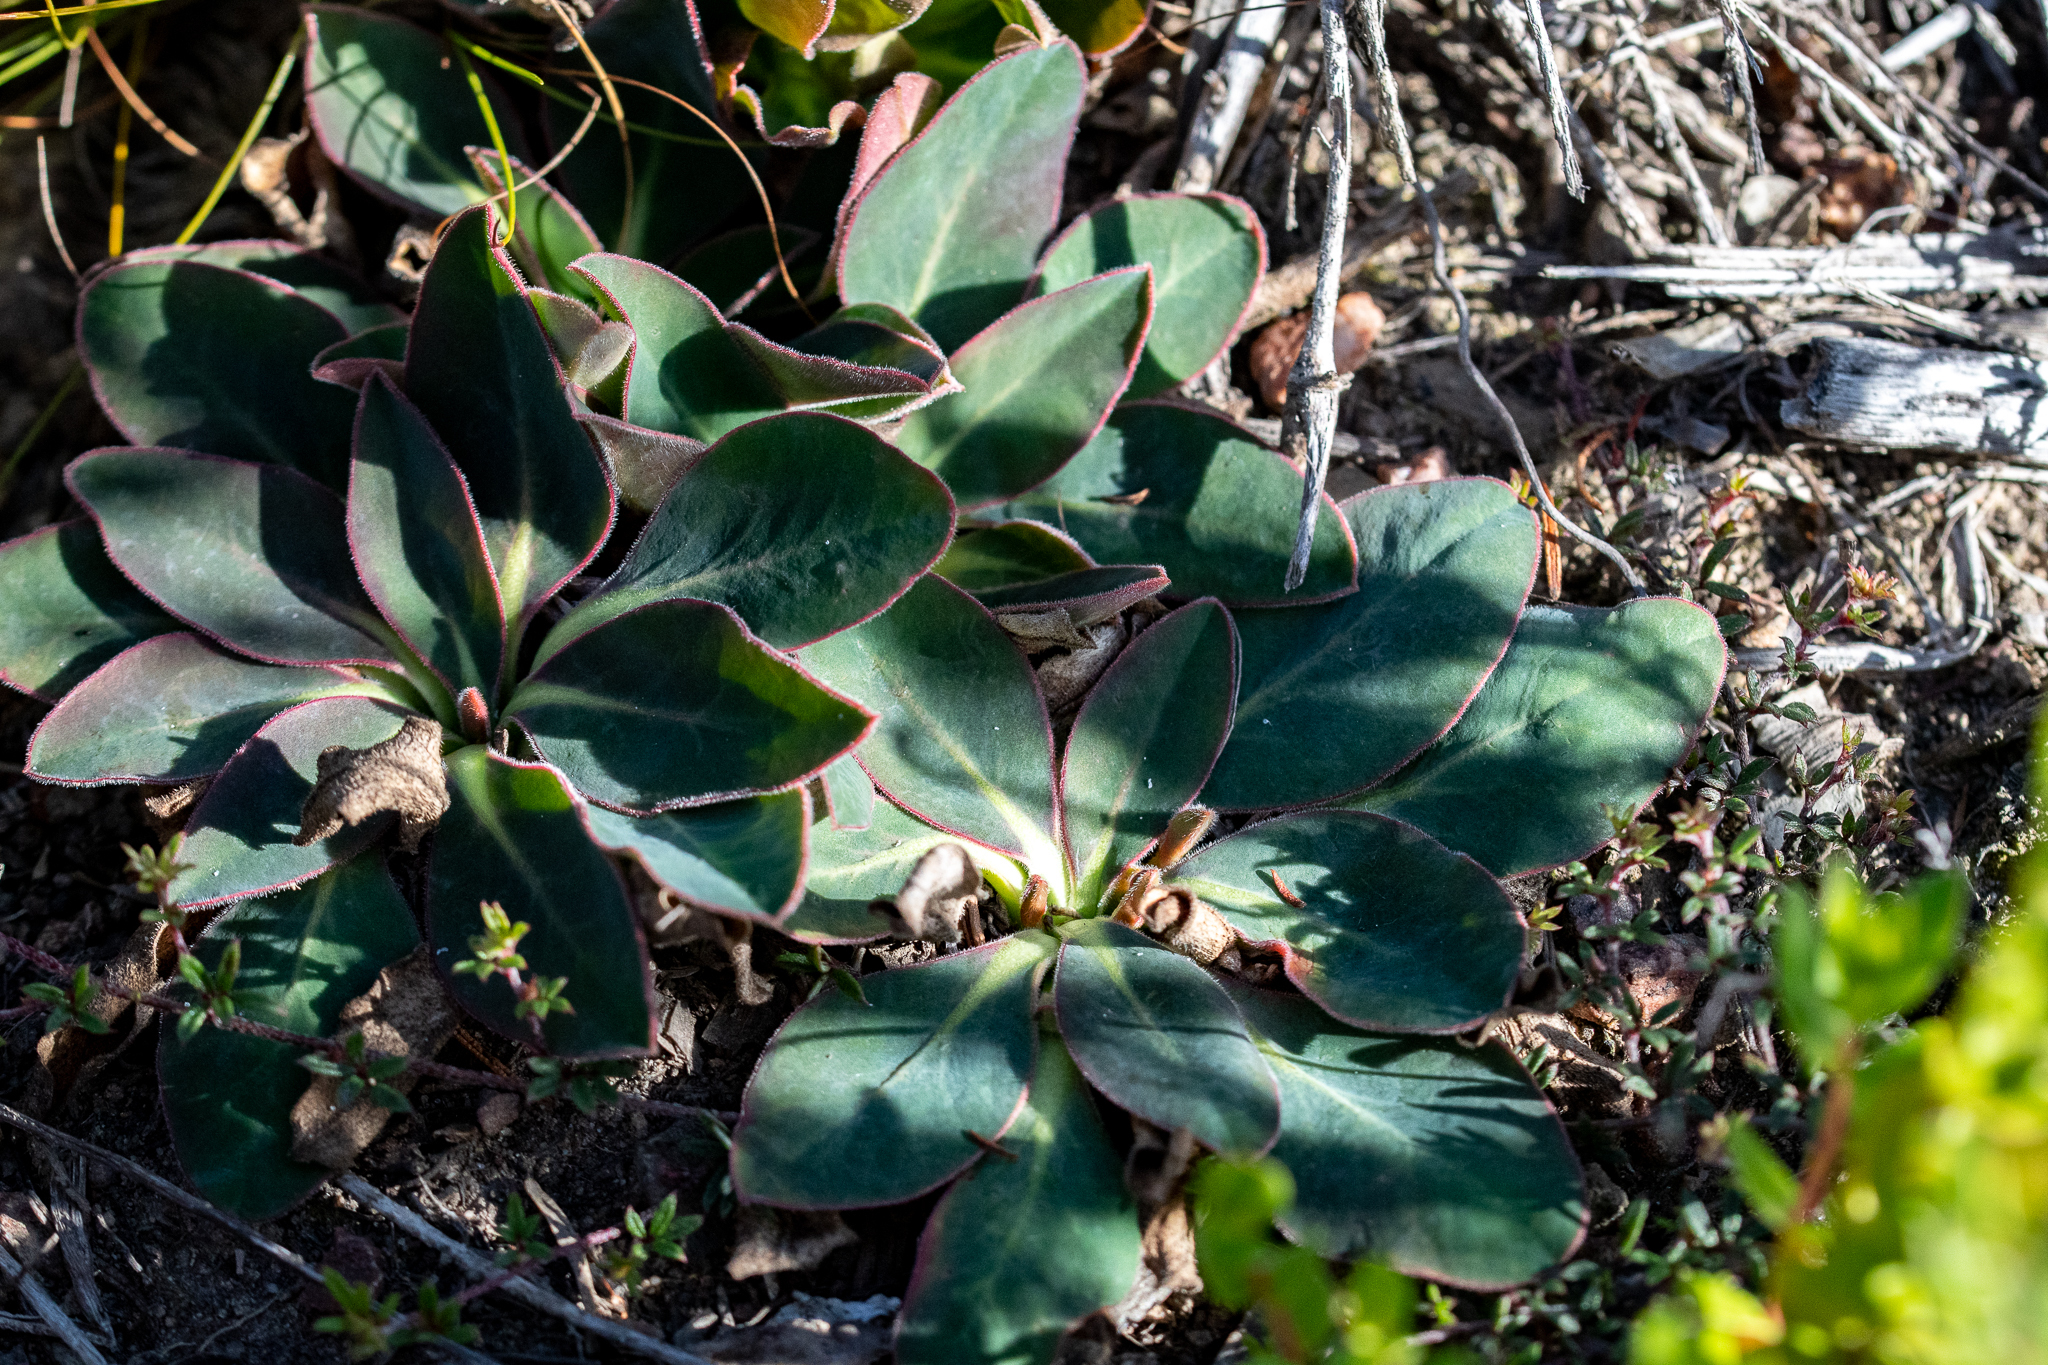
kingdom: Plantae
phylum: Tracheophyta
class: Magnoliopsida
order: Malpighiales
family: Euphorbiaceae
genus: Euphorbia
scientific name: Euphorbia tuberosa
